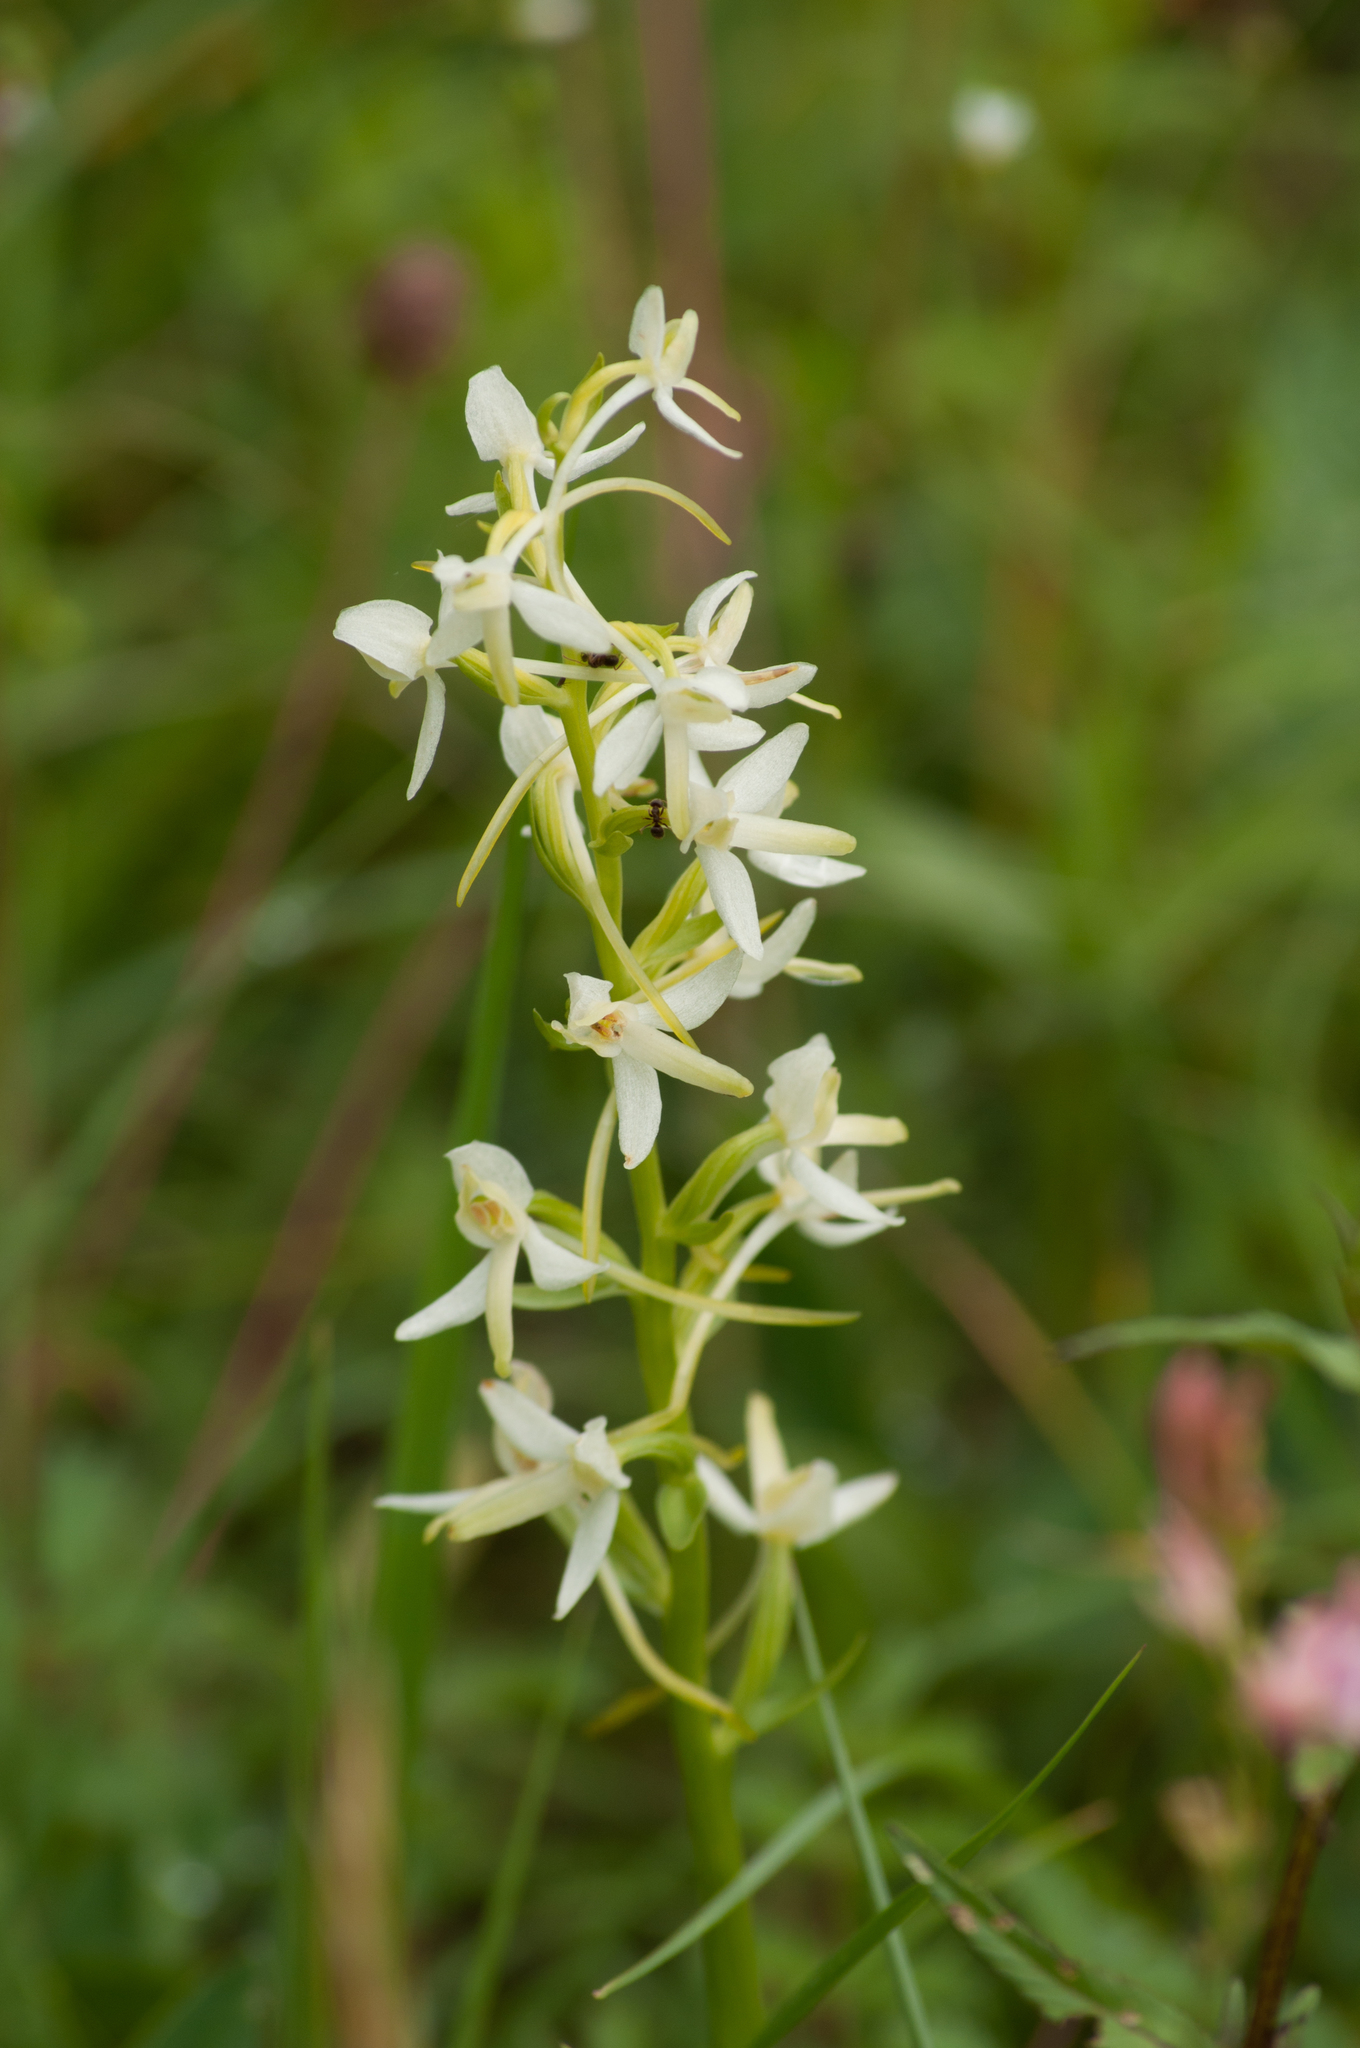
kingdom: Plantae
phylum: Tracheophyta
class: Liliopsida
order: Asparagales
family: Orchidaceae
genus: Platanthera
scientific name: Platanthera bifolia
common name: Lesser butterfly-orchid
